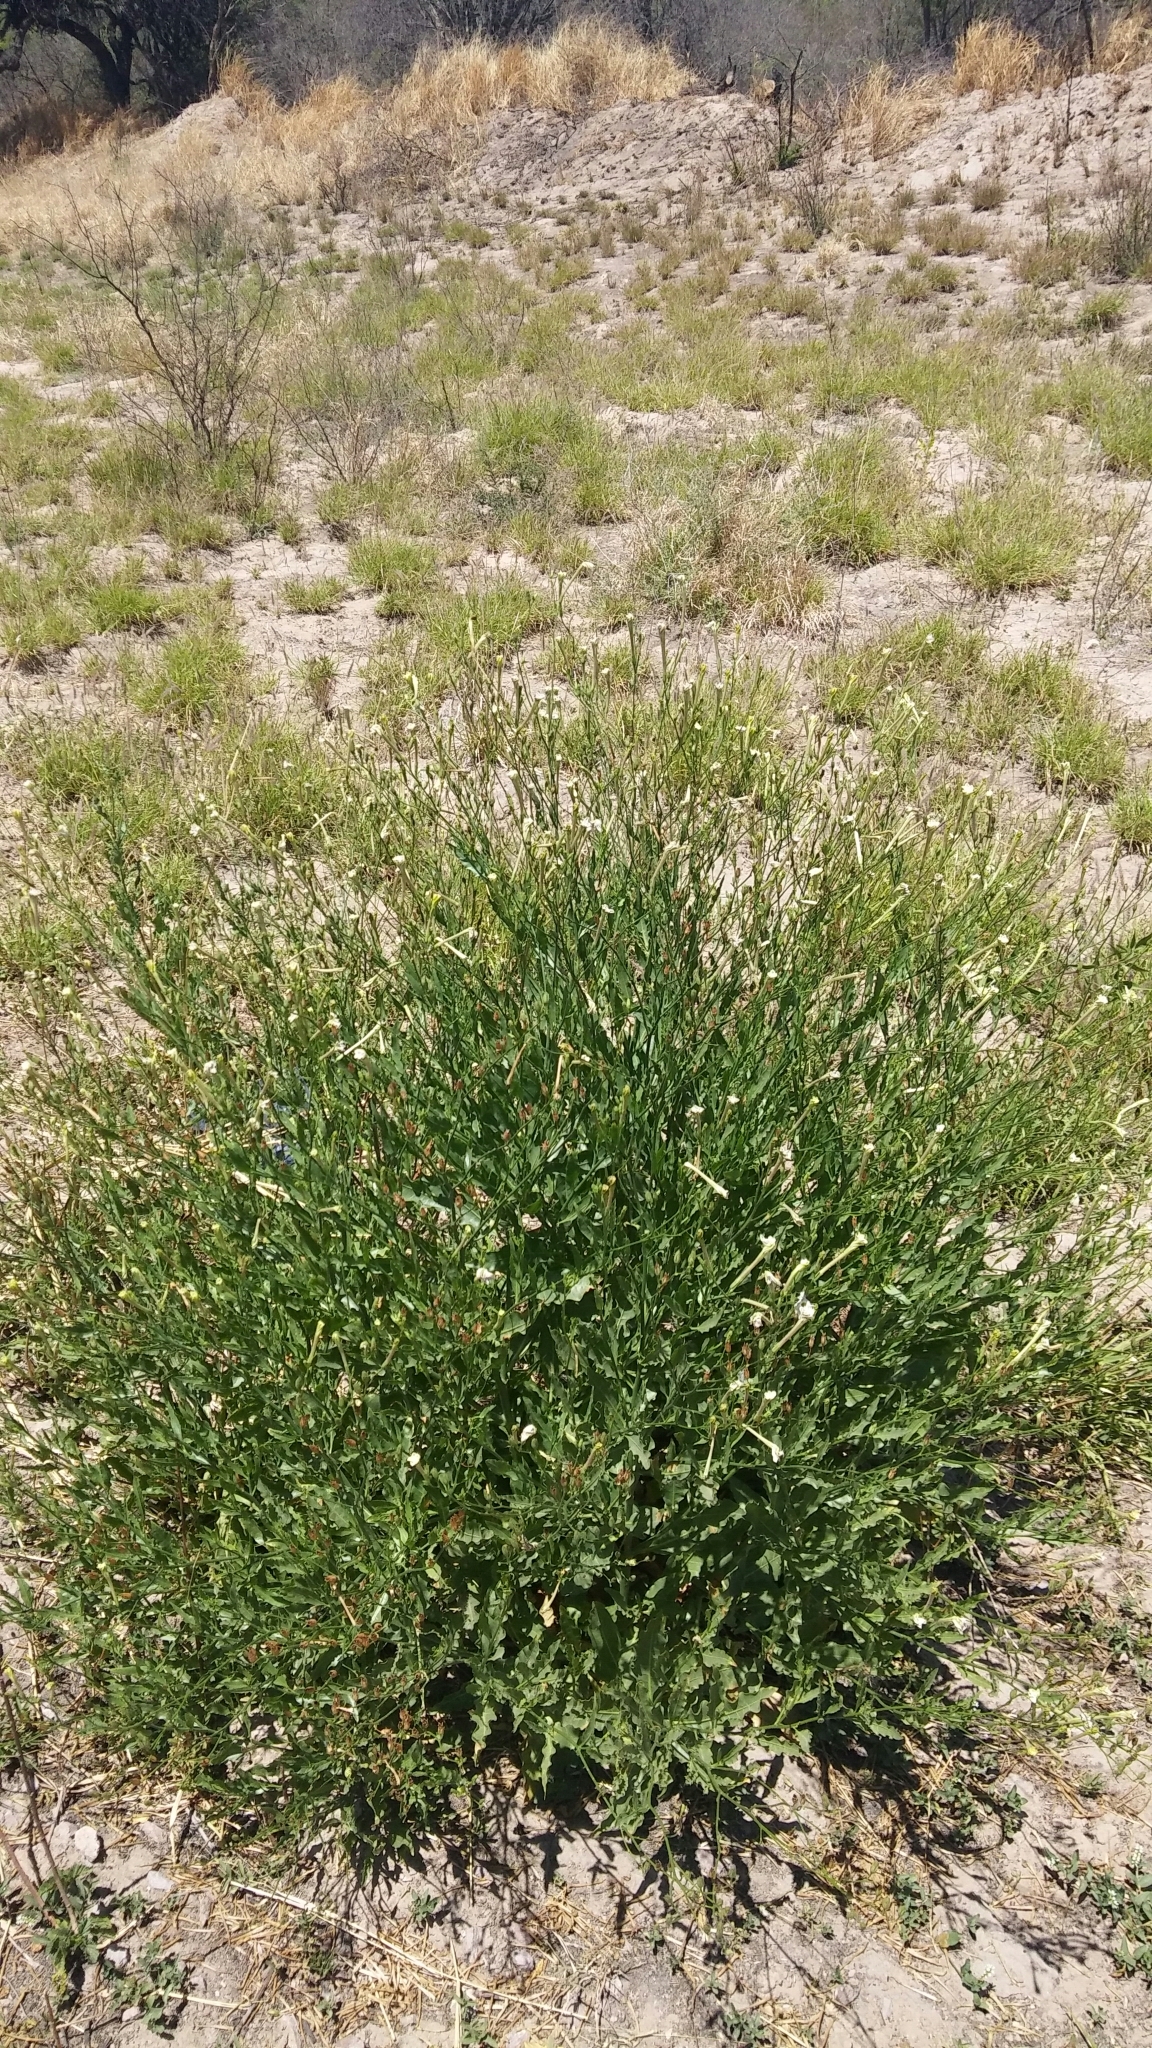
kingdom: Plantae
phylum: Tracheophyta
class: Magnoliopsida
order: Solanales
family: Solanaceae
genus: Nicotiana
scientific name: Nicotiana paa
